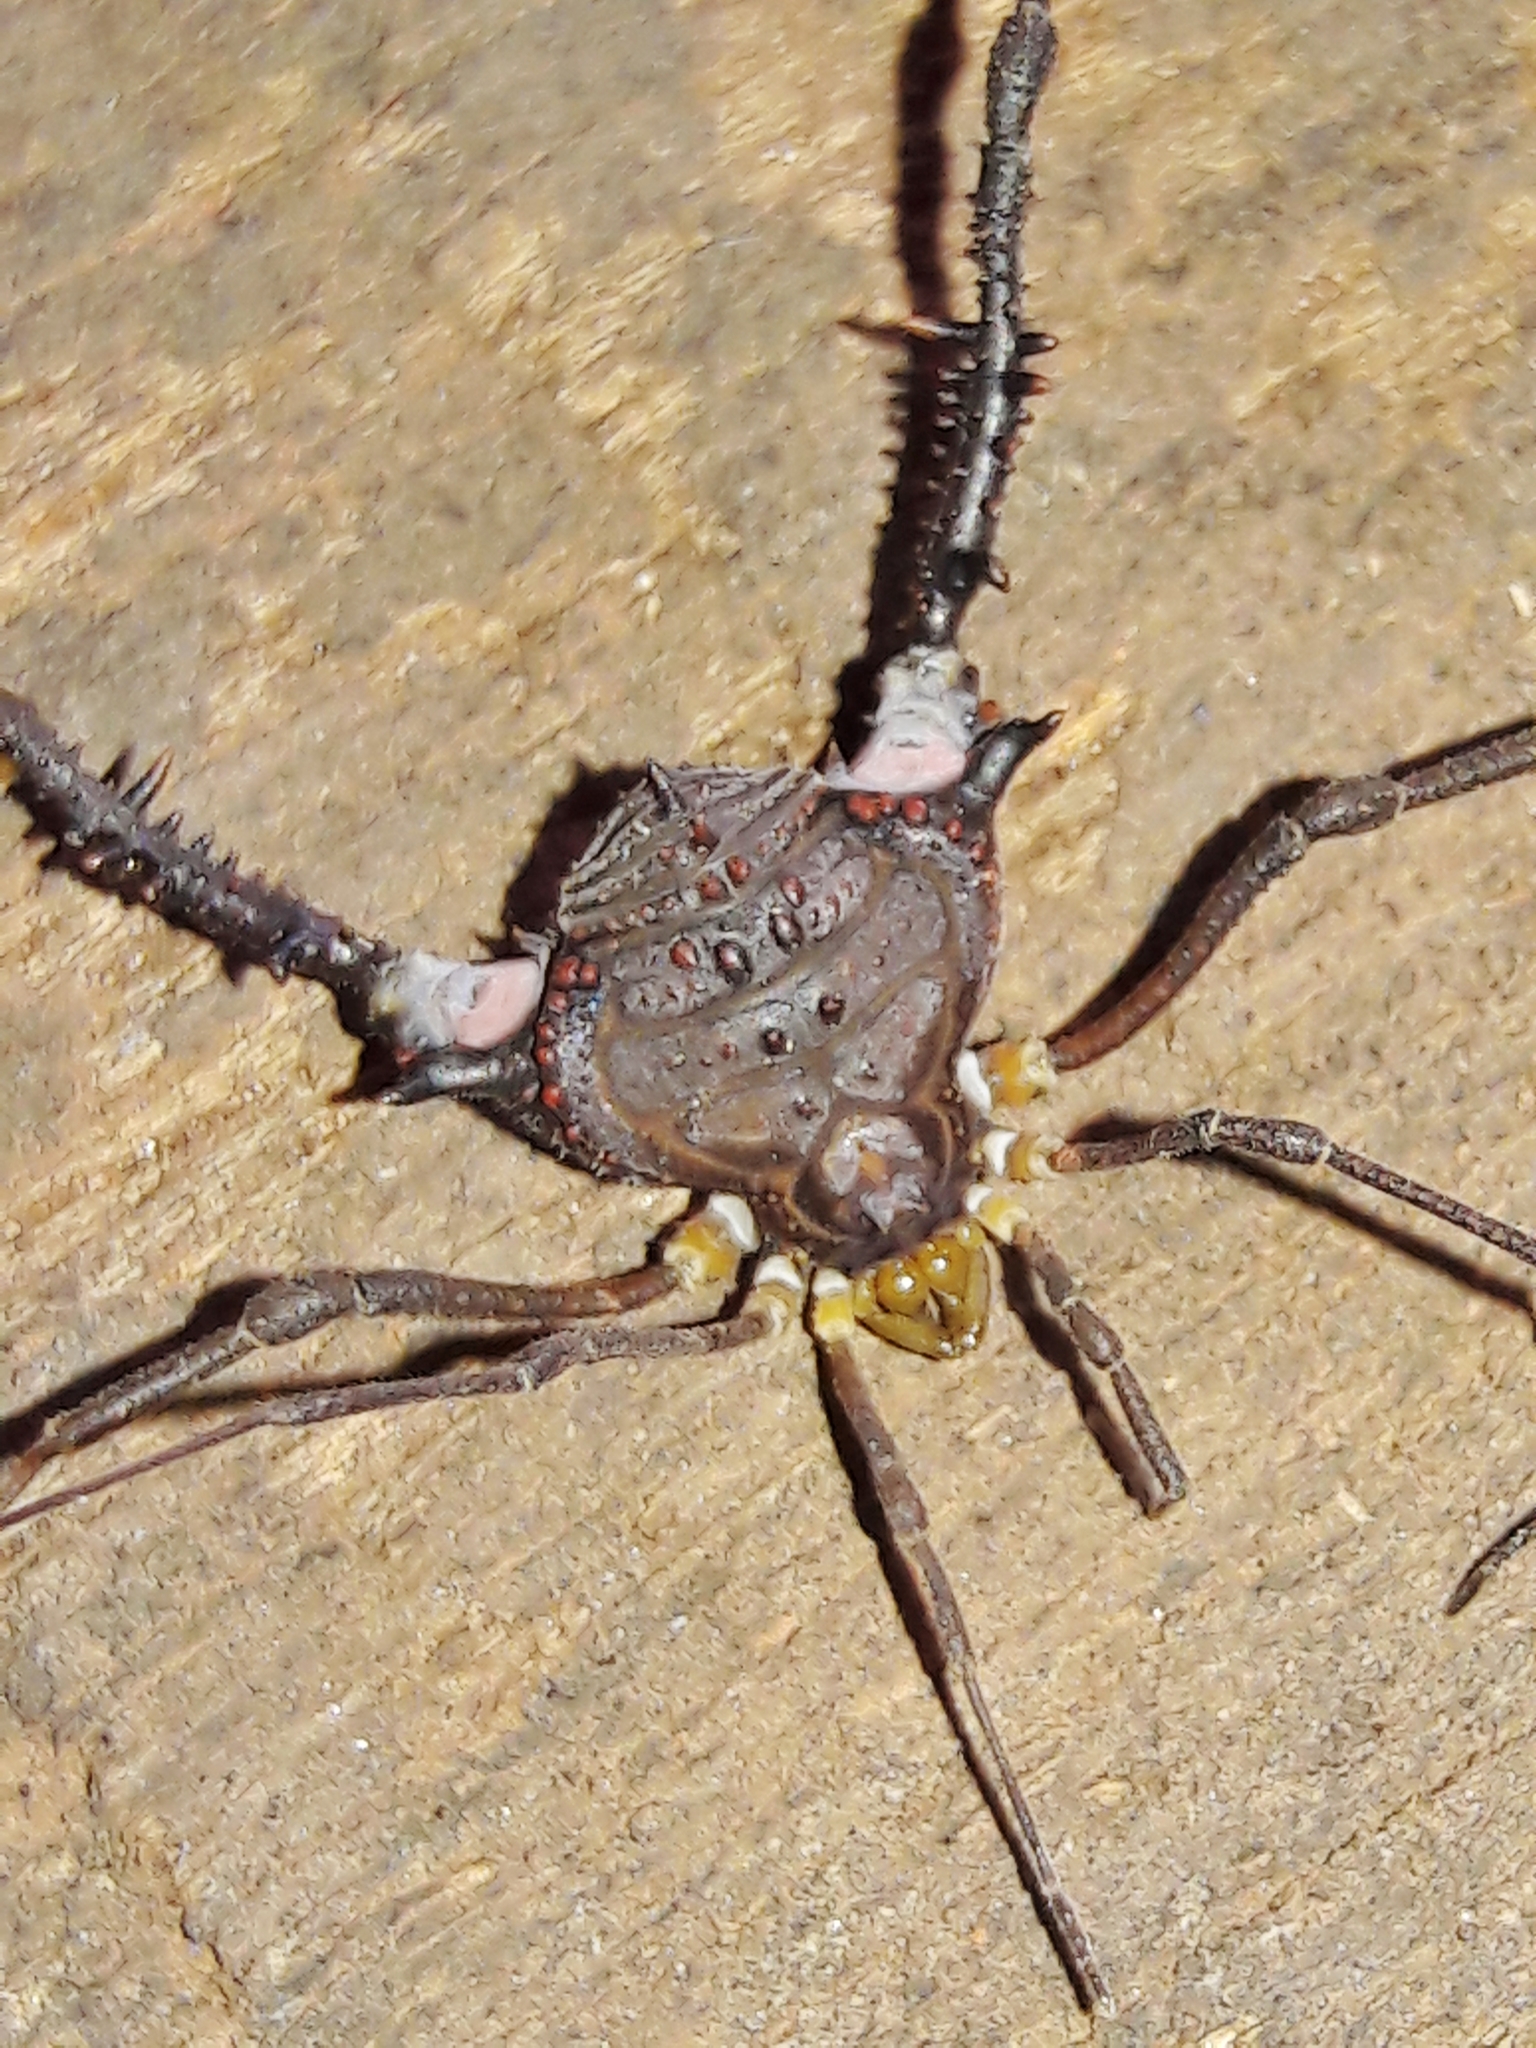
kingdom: Animalia
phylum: Arthropoda
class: Arachnida
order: Opiliones
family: Gonyleptidae
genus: Mischonyx
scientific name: Mischonyx squalidus
